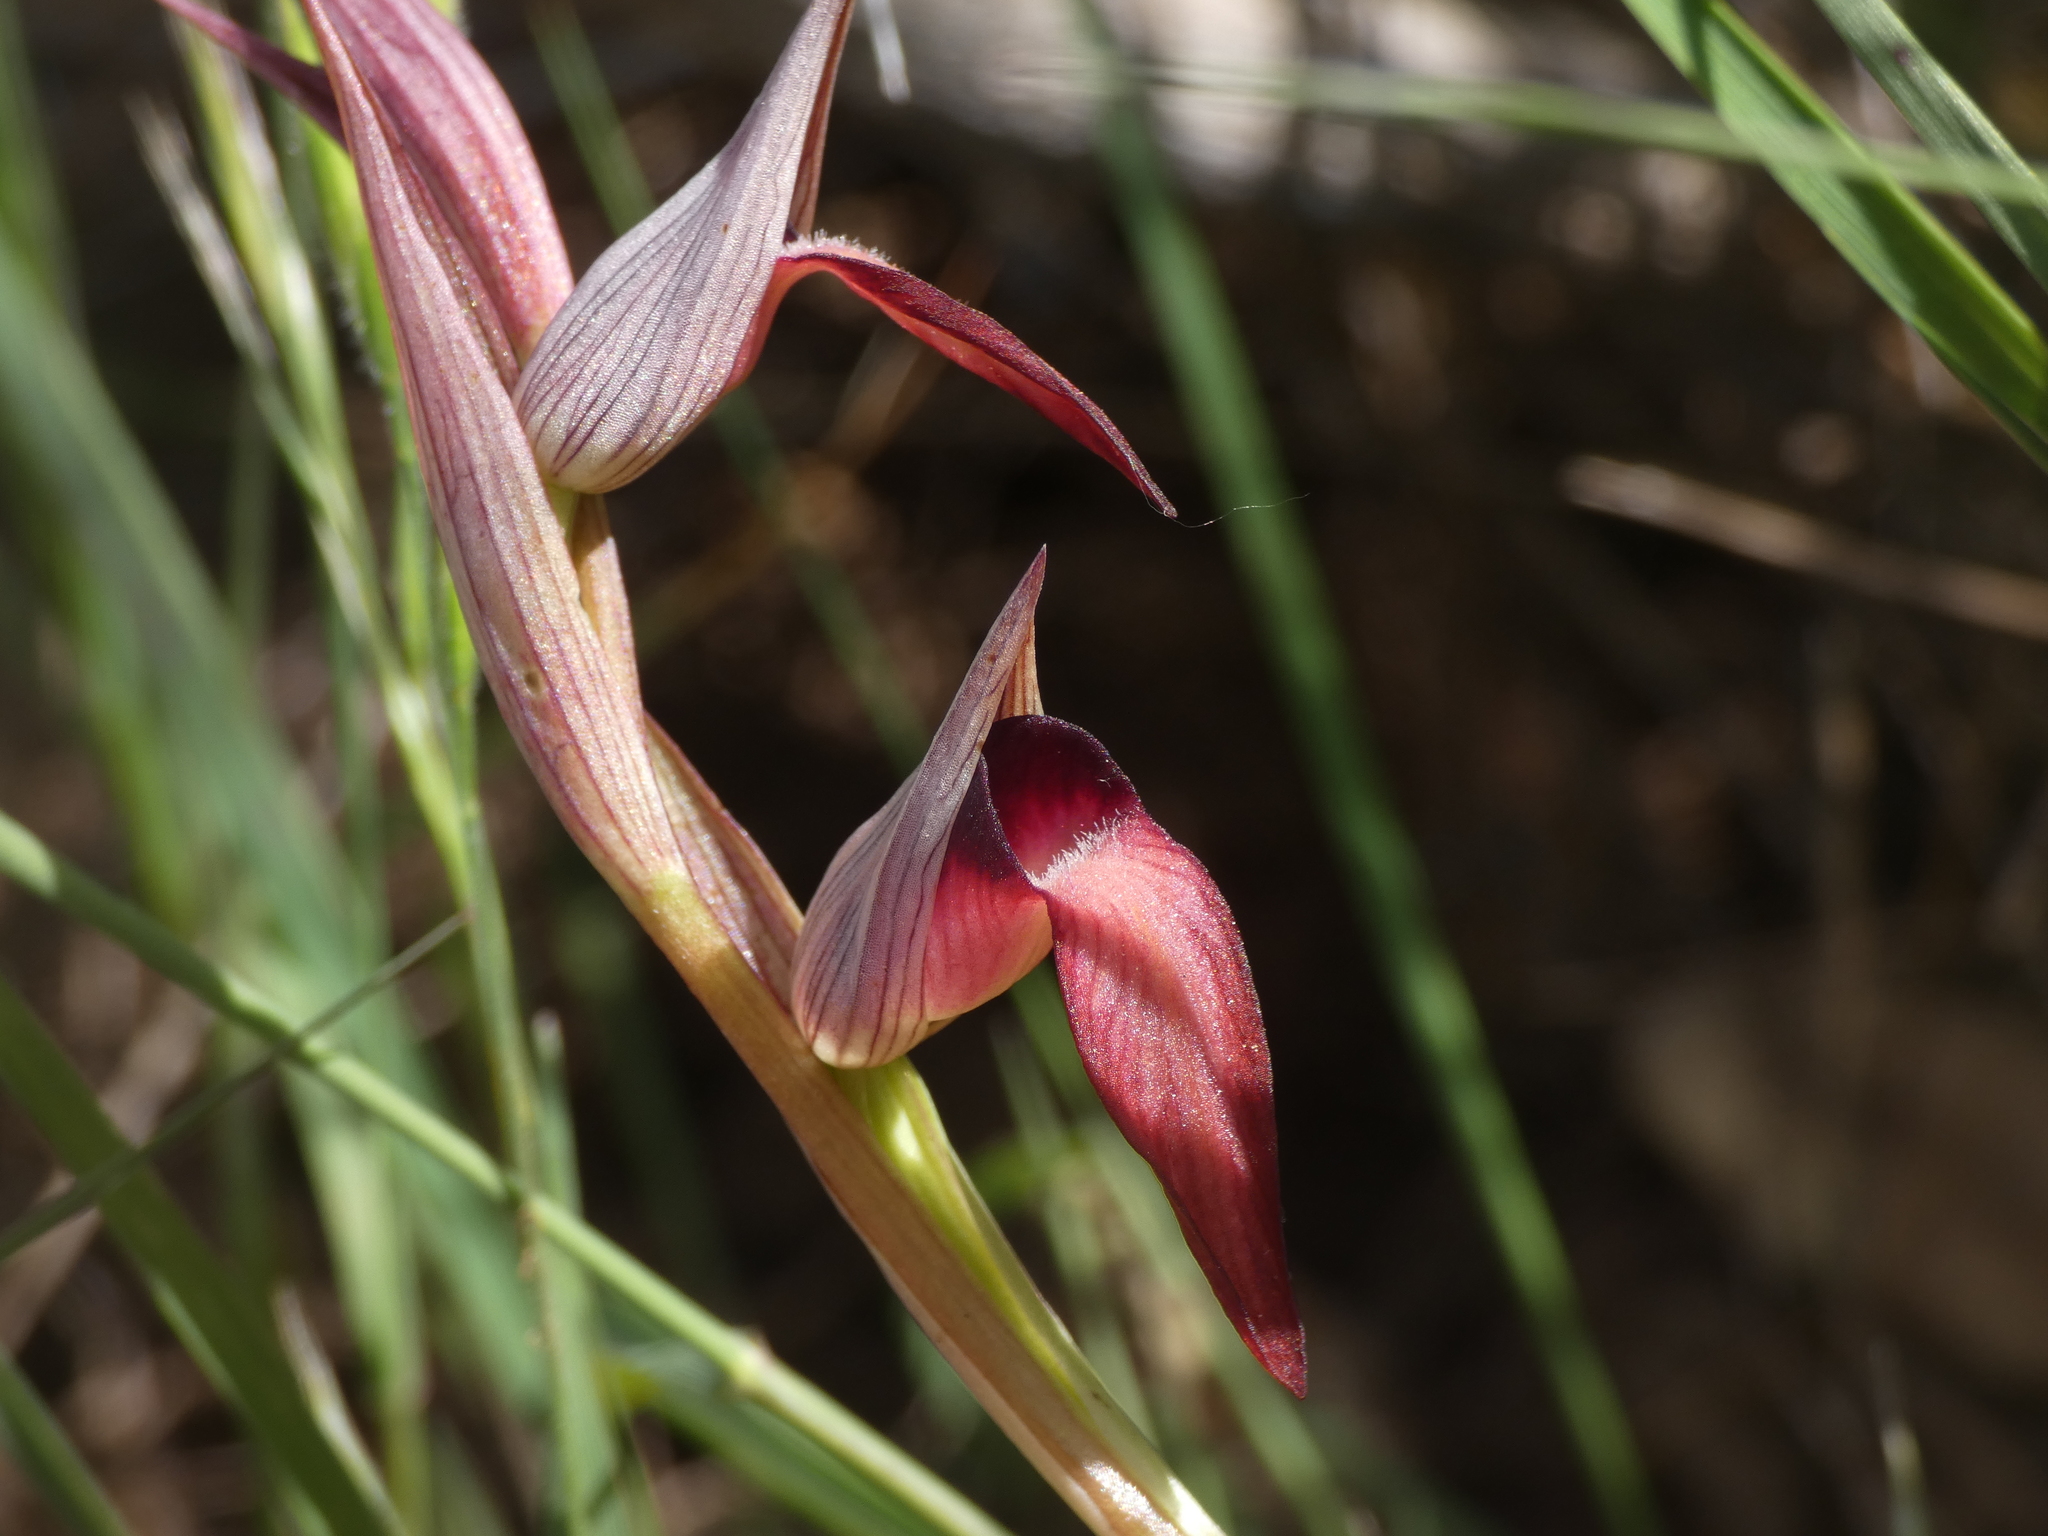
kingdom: Plantae
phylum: Tracheophyta
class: Liliopsida
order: Asparagales
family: Orchidaceae
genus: Serapias
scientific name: Serapias lingua
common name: Tongue-orchid
